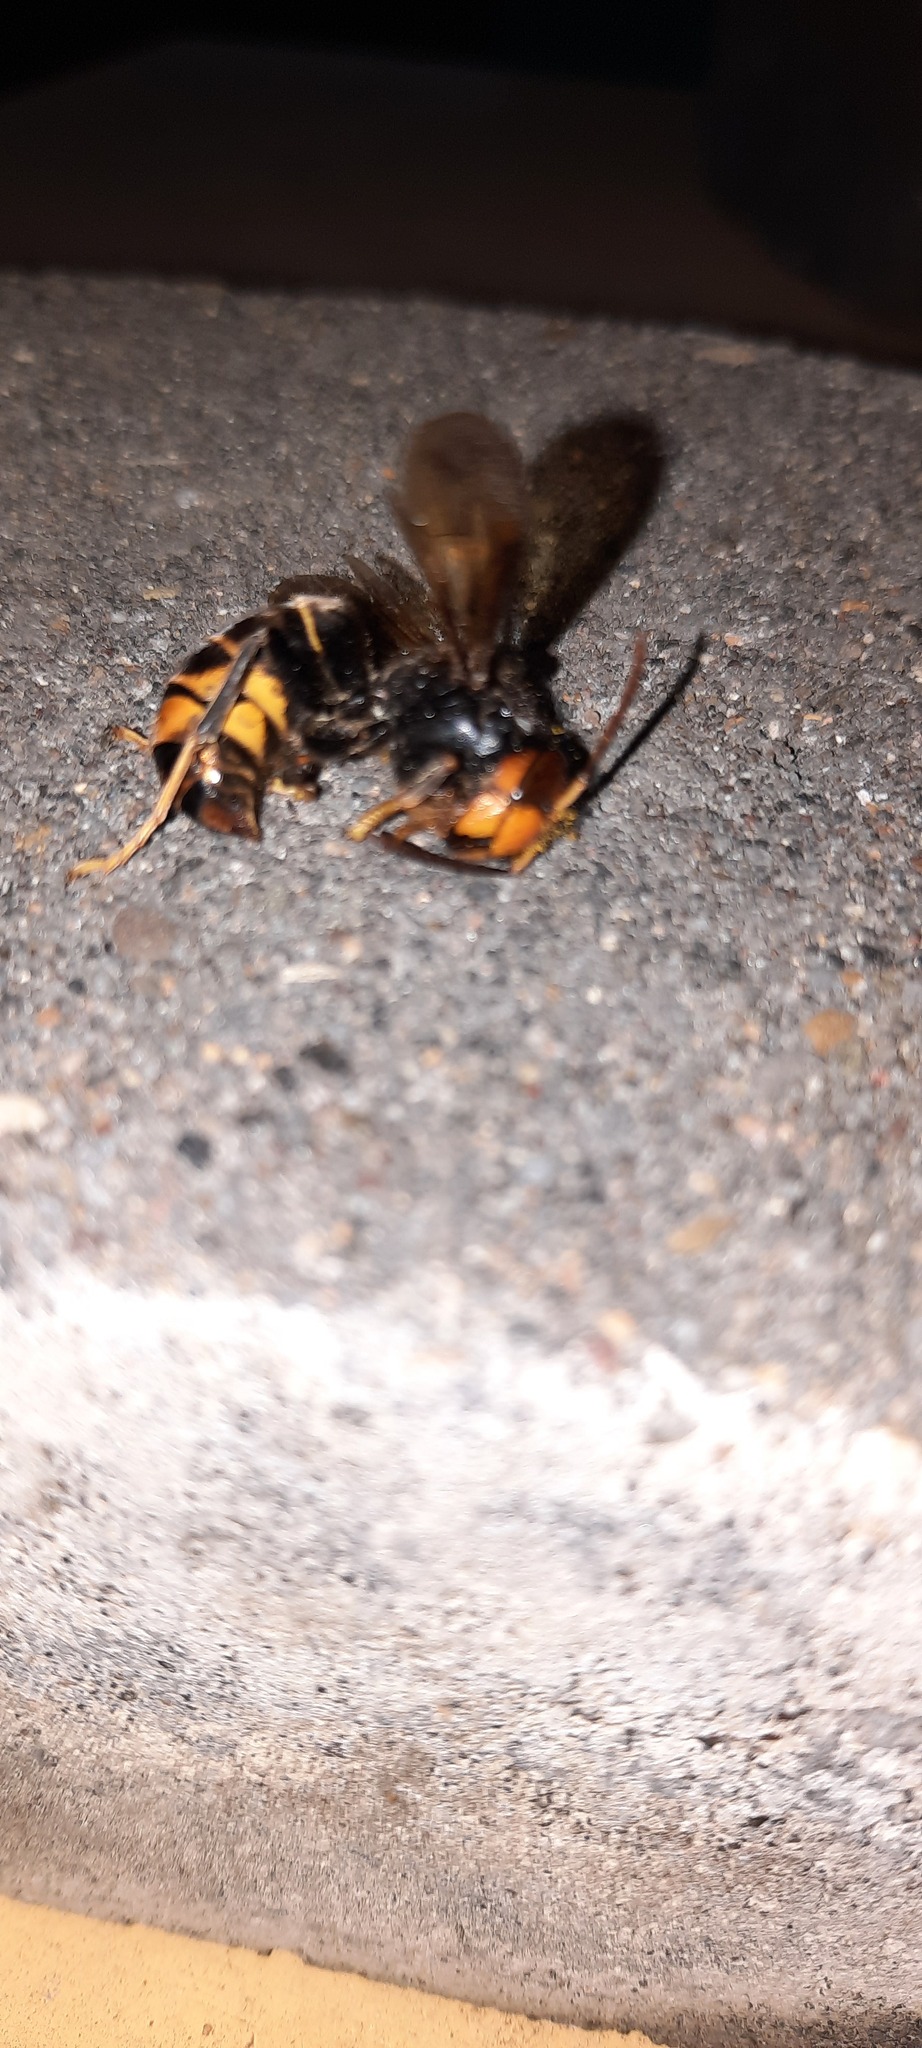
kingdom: Animalia
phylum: Arthropoda
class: Insecta
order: Hymenoptera
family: Vespidae
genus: Vespa
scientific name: Vespa velutina
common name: Asian hornet
